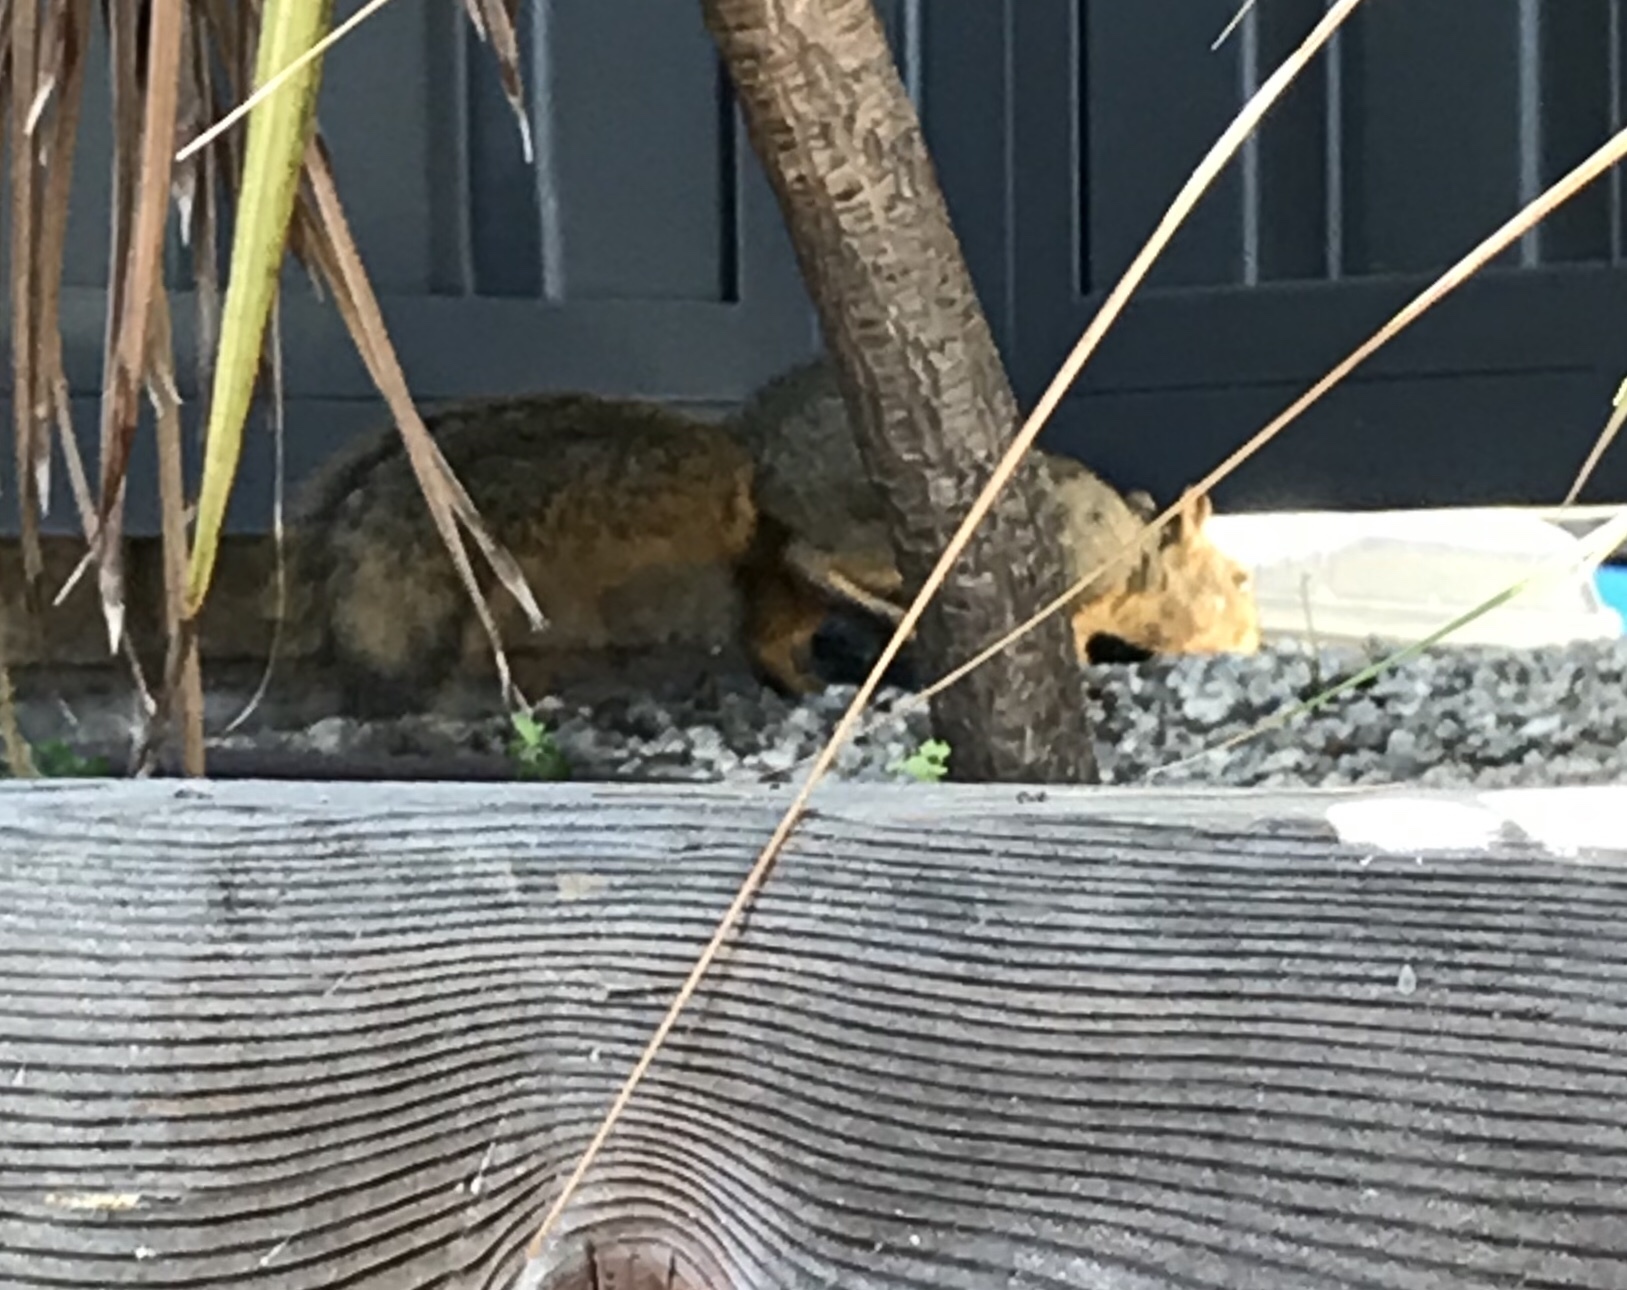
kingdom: Animalia
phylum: Chordata
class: Mammalia
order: Rodentia
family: Sciuridae
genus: Sciurus
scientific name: Sciurus niger
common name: Fox squirrel
